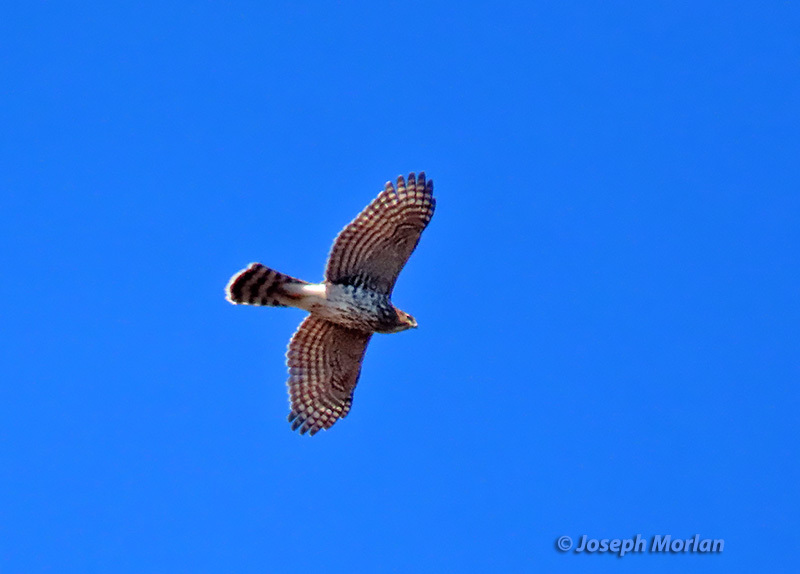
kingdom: Animalia
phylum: Chordata
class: Aves
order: Accipitriformes
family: Accipitridae
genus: Accipiter
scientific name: Accipiter cooperii
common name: Cooper's hawk
